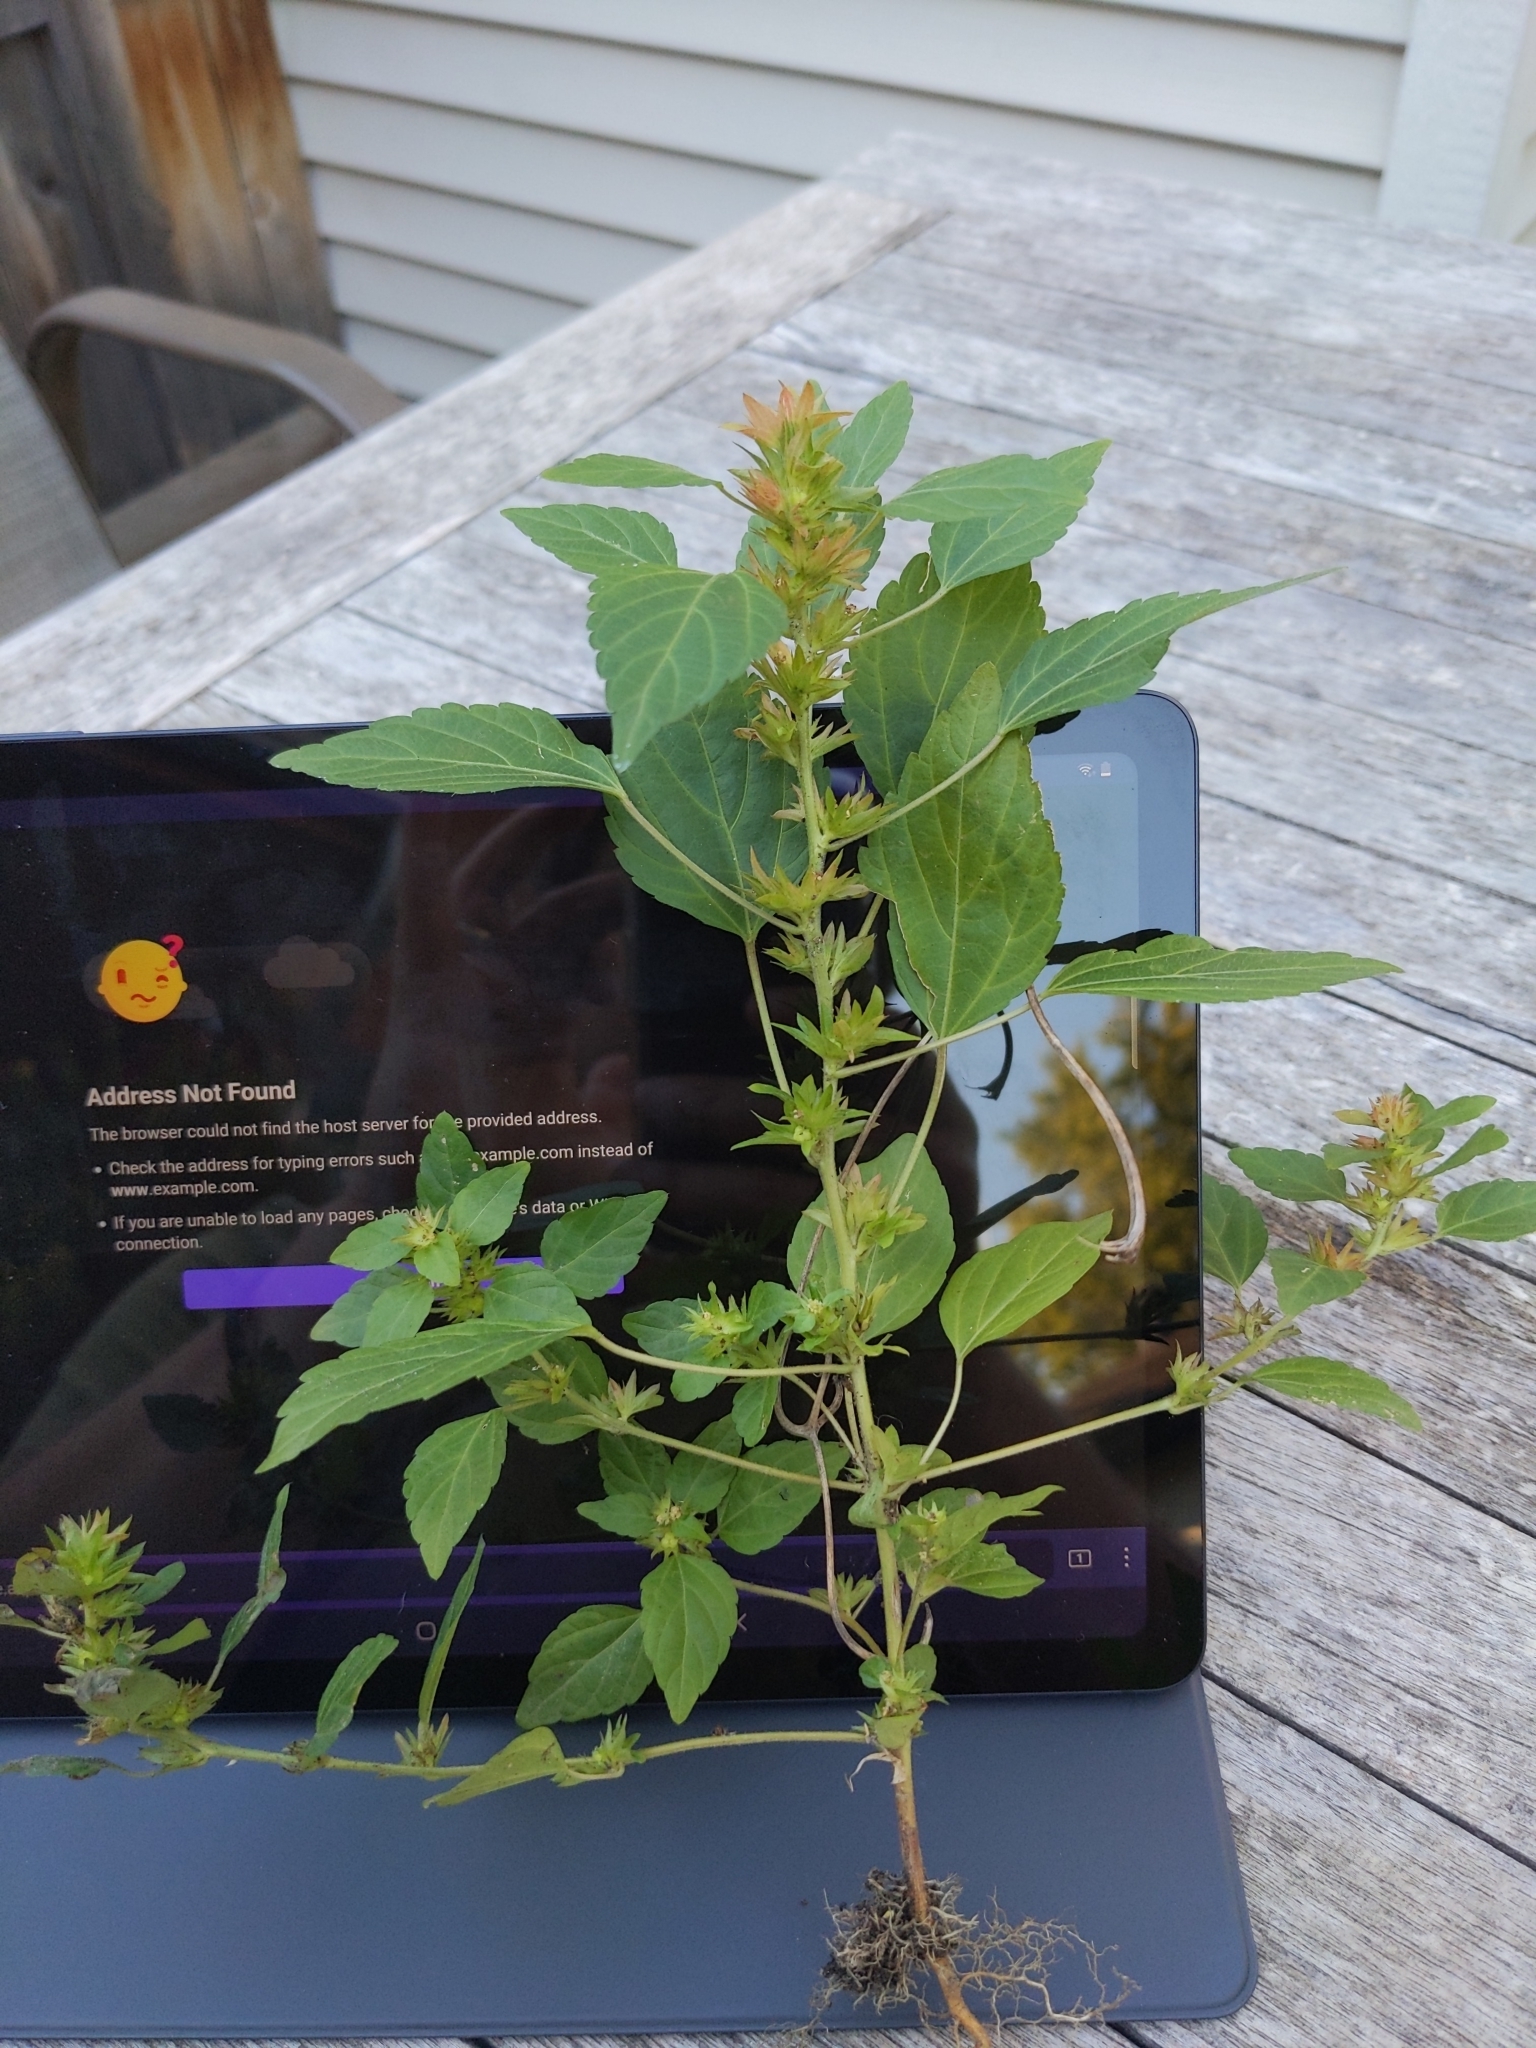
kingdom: Plantae
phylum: Tracheophyta
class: Magnoliopsida
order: Malpighiales
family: Euphorbiaceae
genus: Acalypha
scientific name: Acalypha rhomboidea
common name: Rhombic copperleaf
